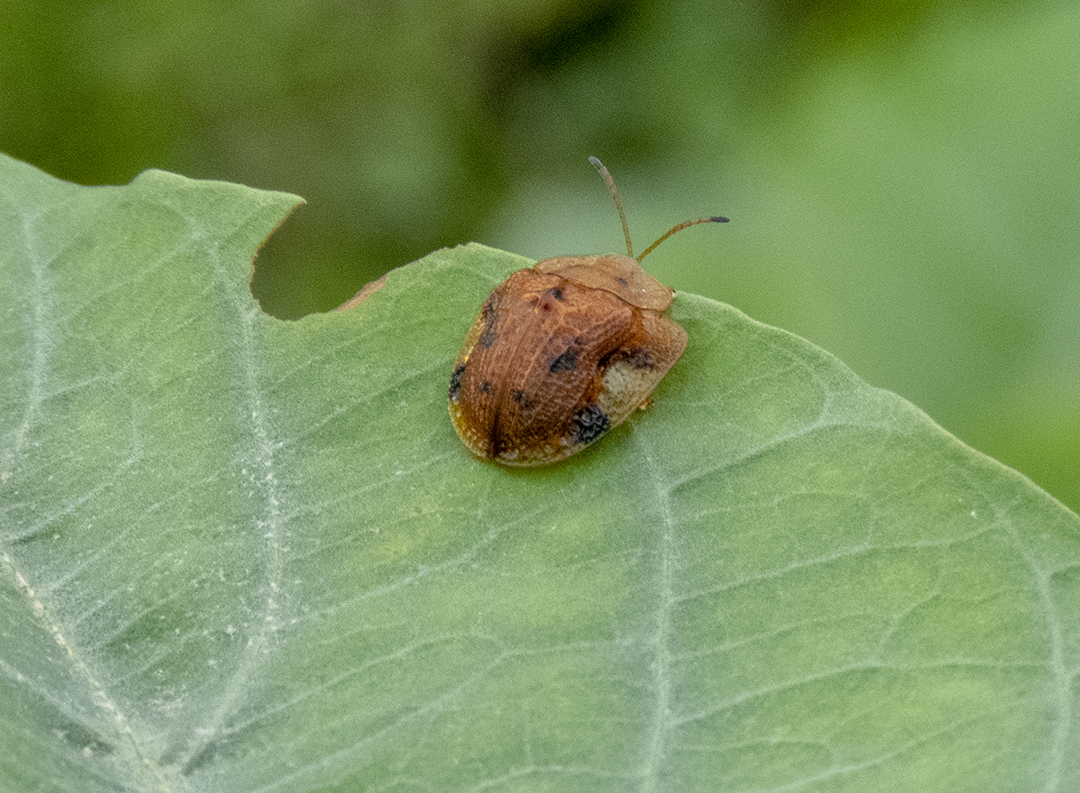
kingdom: Animalia
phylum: Arthropoda
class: Insecta
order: Coleoptera
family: Chrysomelidae
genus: Laccoptera
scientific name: Laccoptera nepalensis
